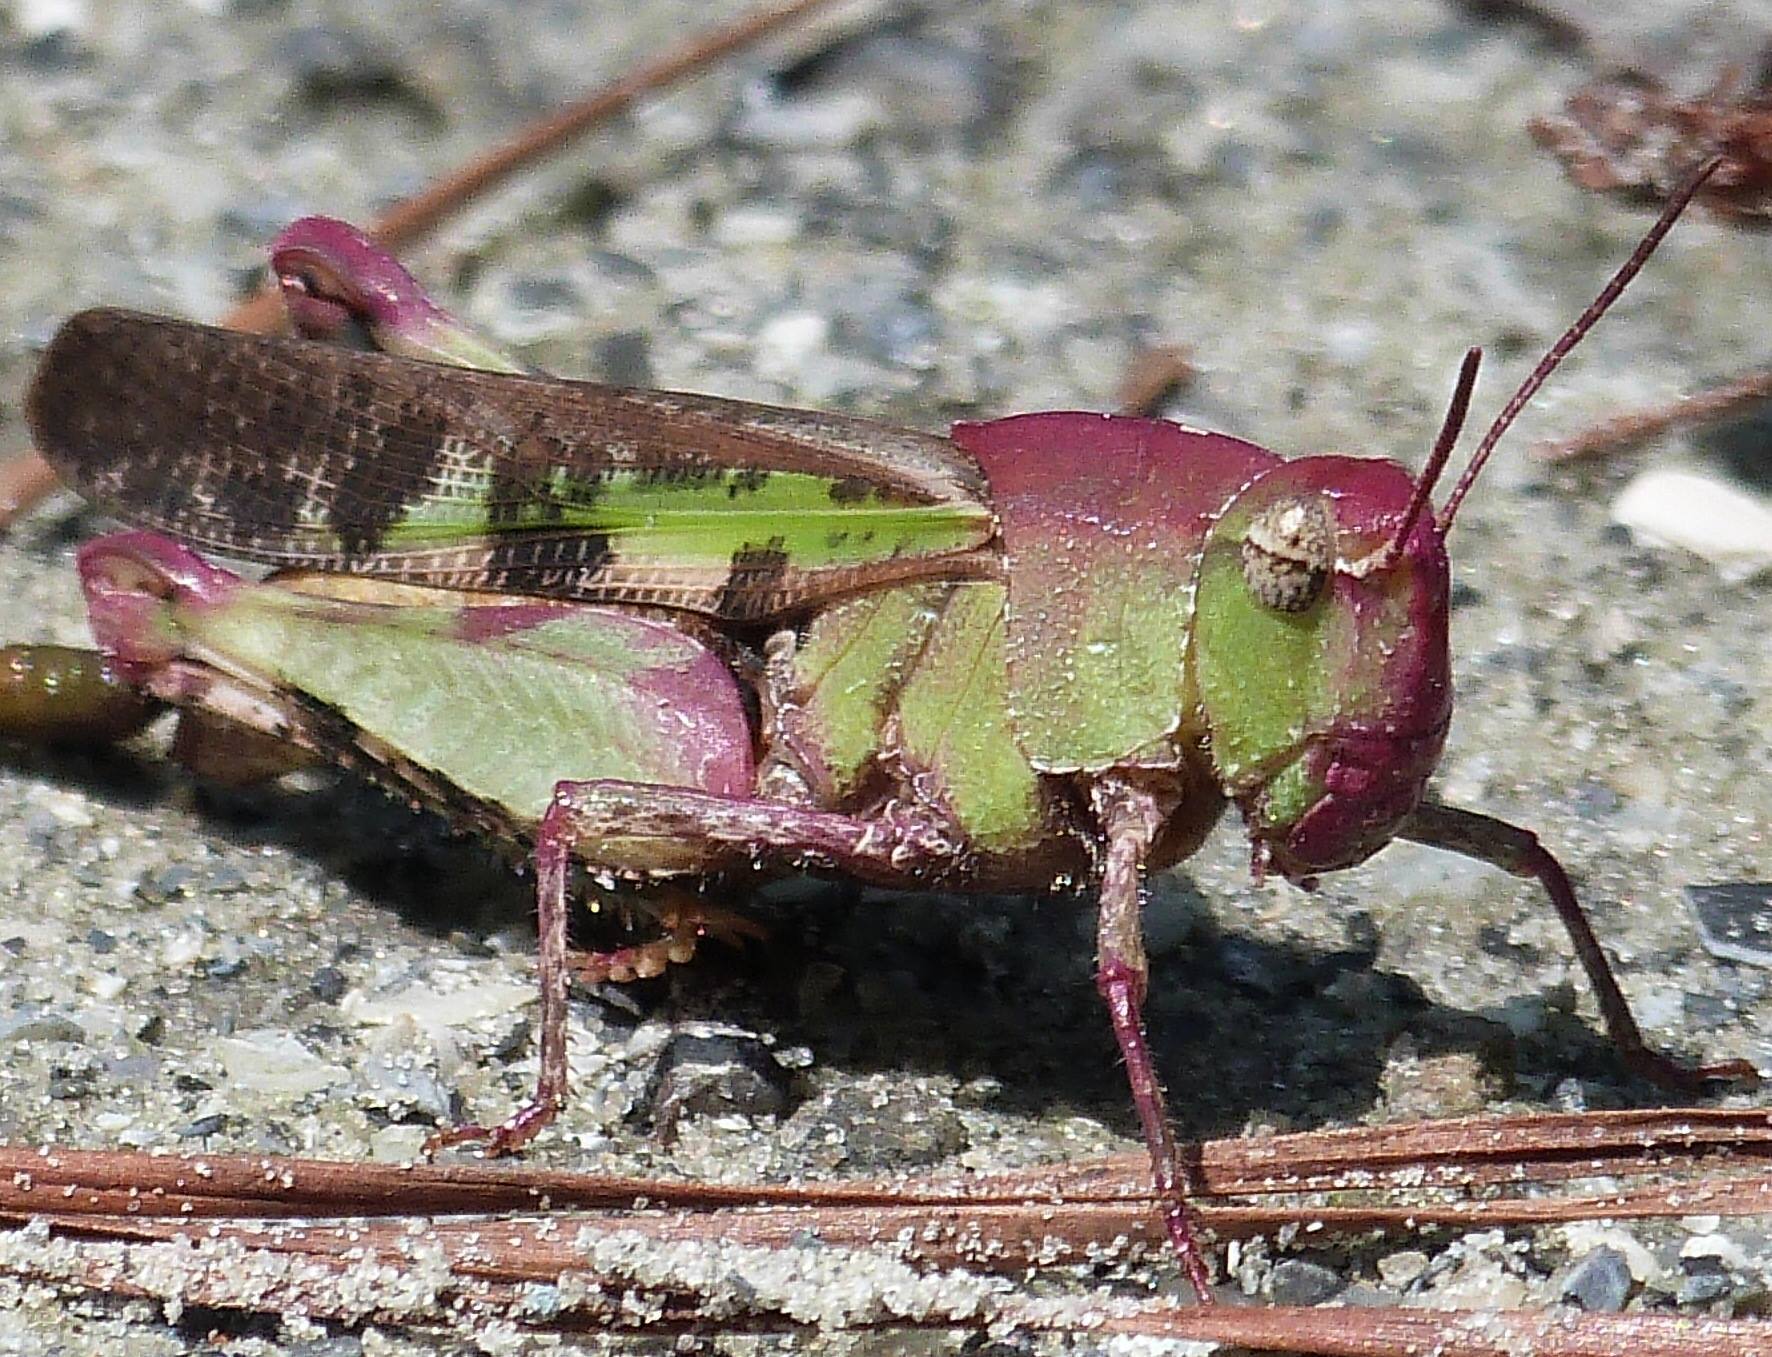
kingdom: Animalia
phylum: Arthropoda
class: Insecta
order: Orthoptera
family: Acrididae
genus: Chortophaga
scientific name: Chortophaga australior
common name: Southern green-striped grasshopper
